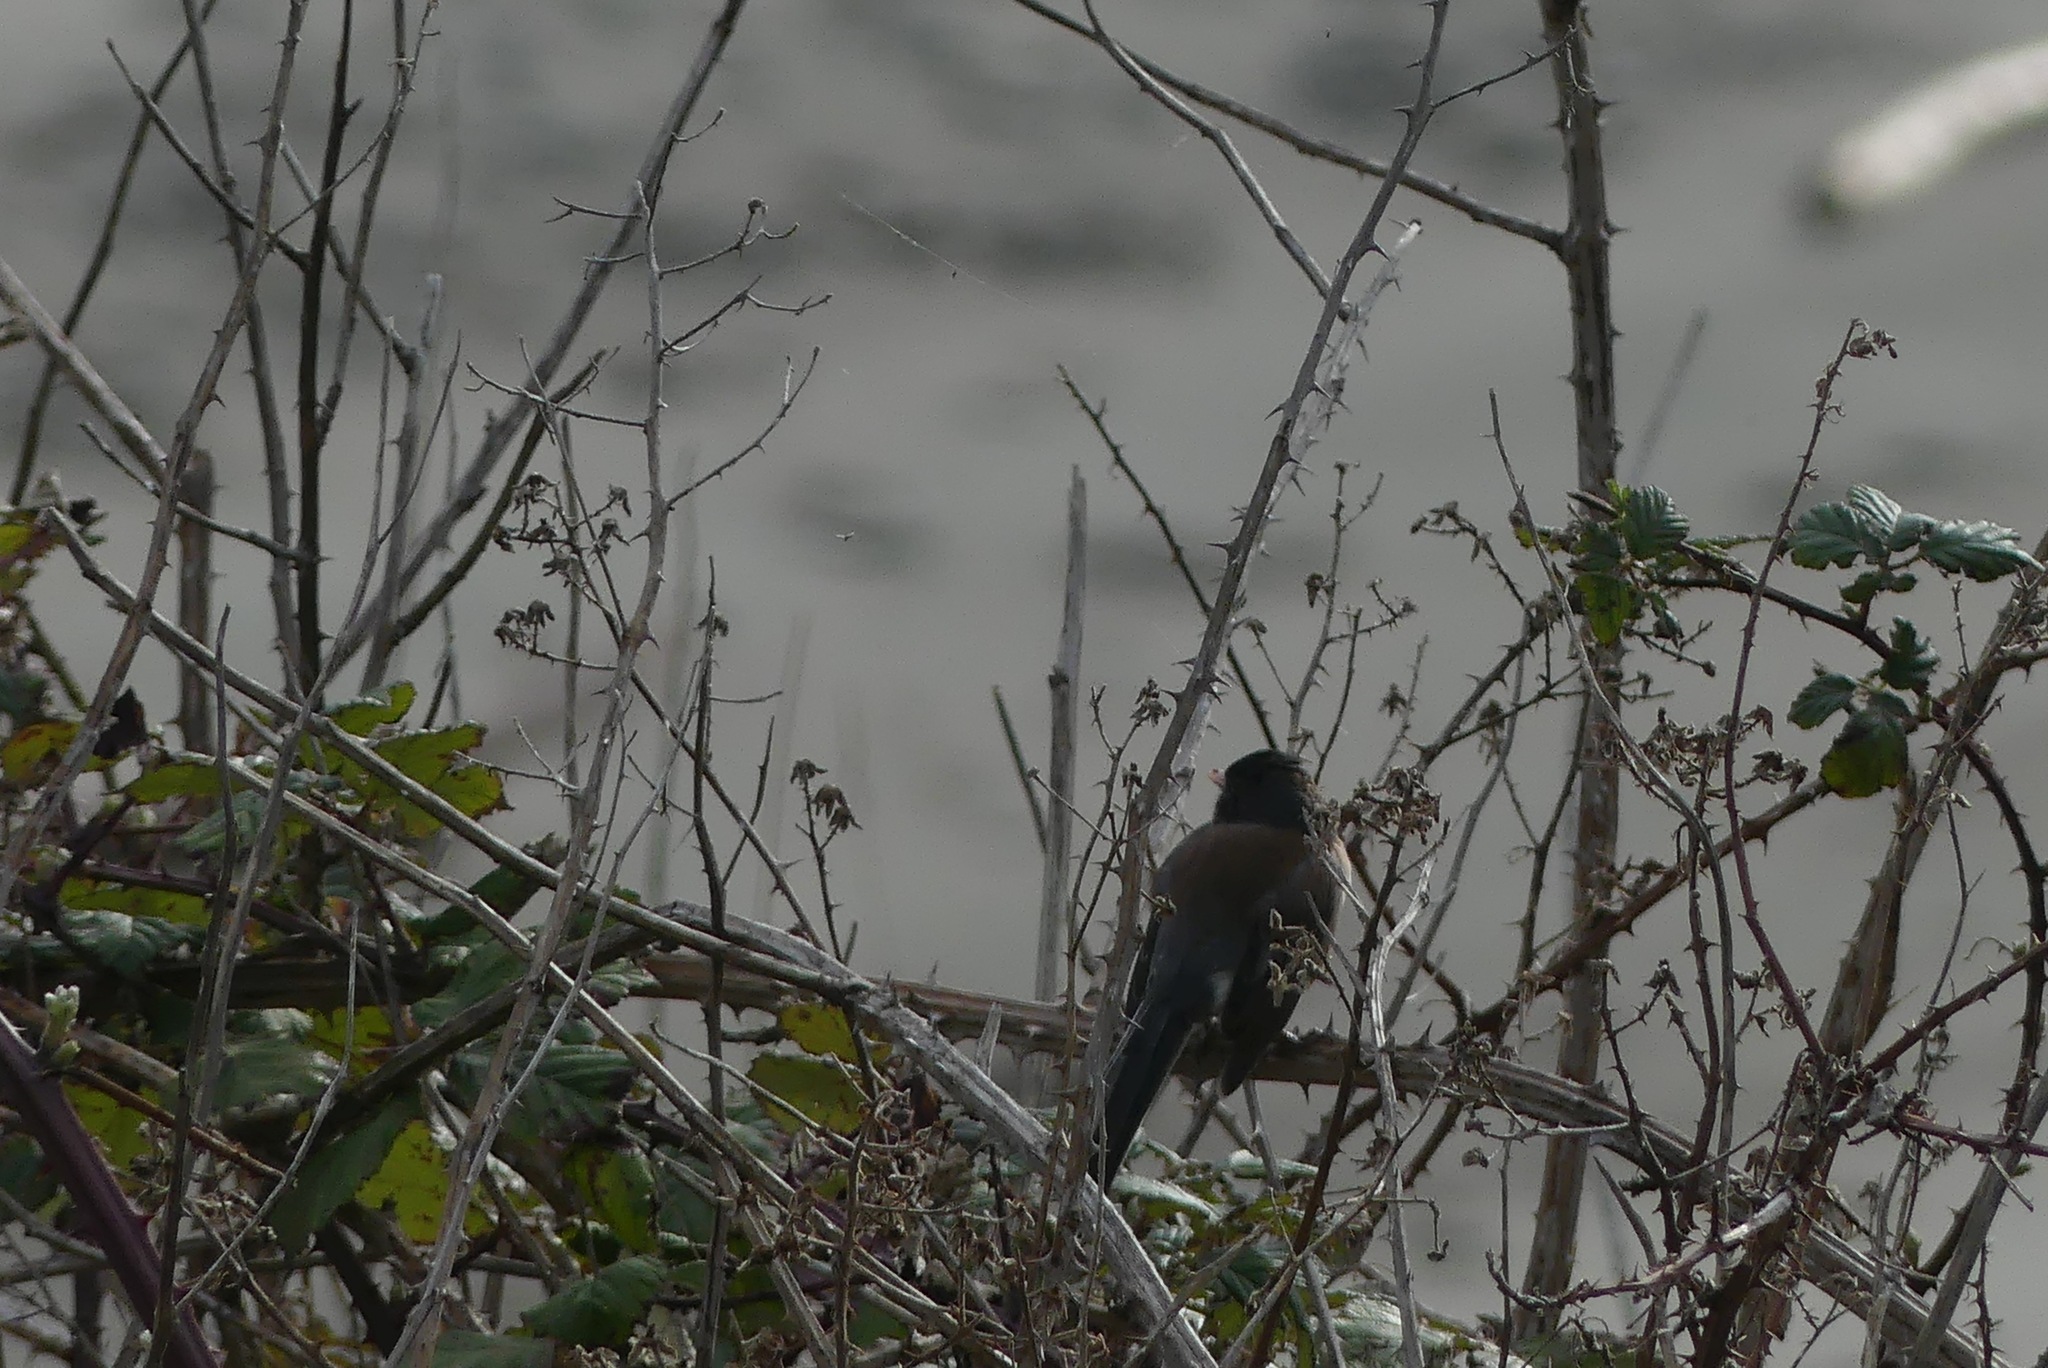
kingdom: Animalia
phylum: Chordata
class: Aves
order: Passeriformes
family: Passerellidae
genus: Junco
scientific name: Junco hyemalis
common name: Dark-eyed junco
